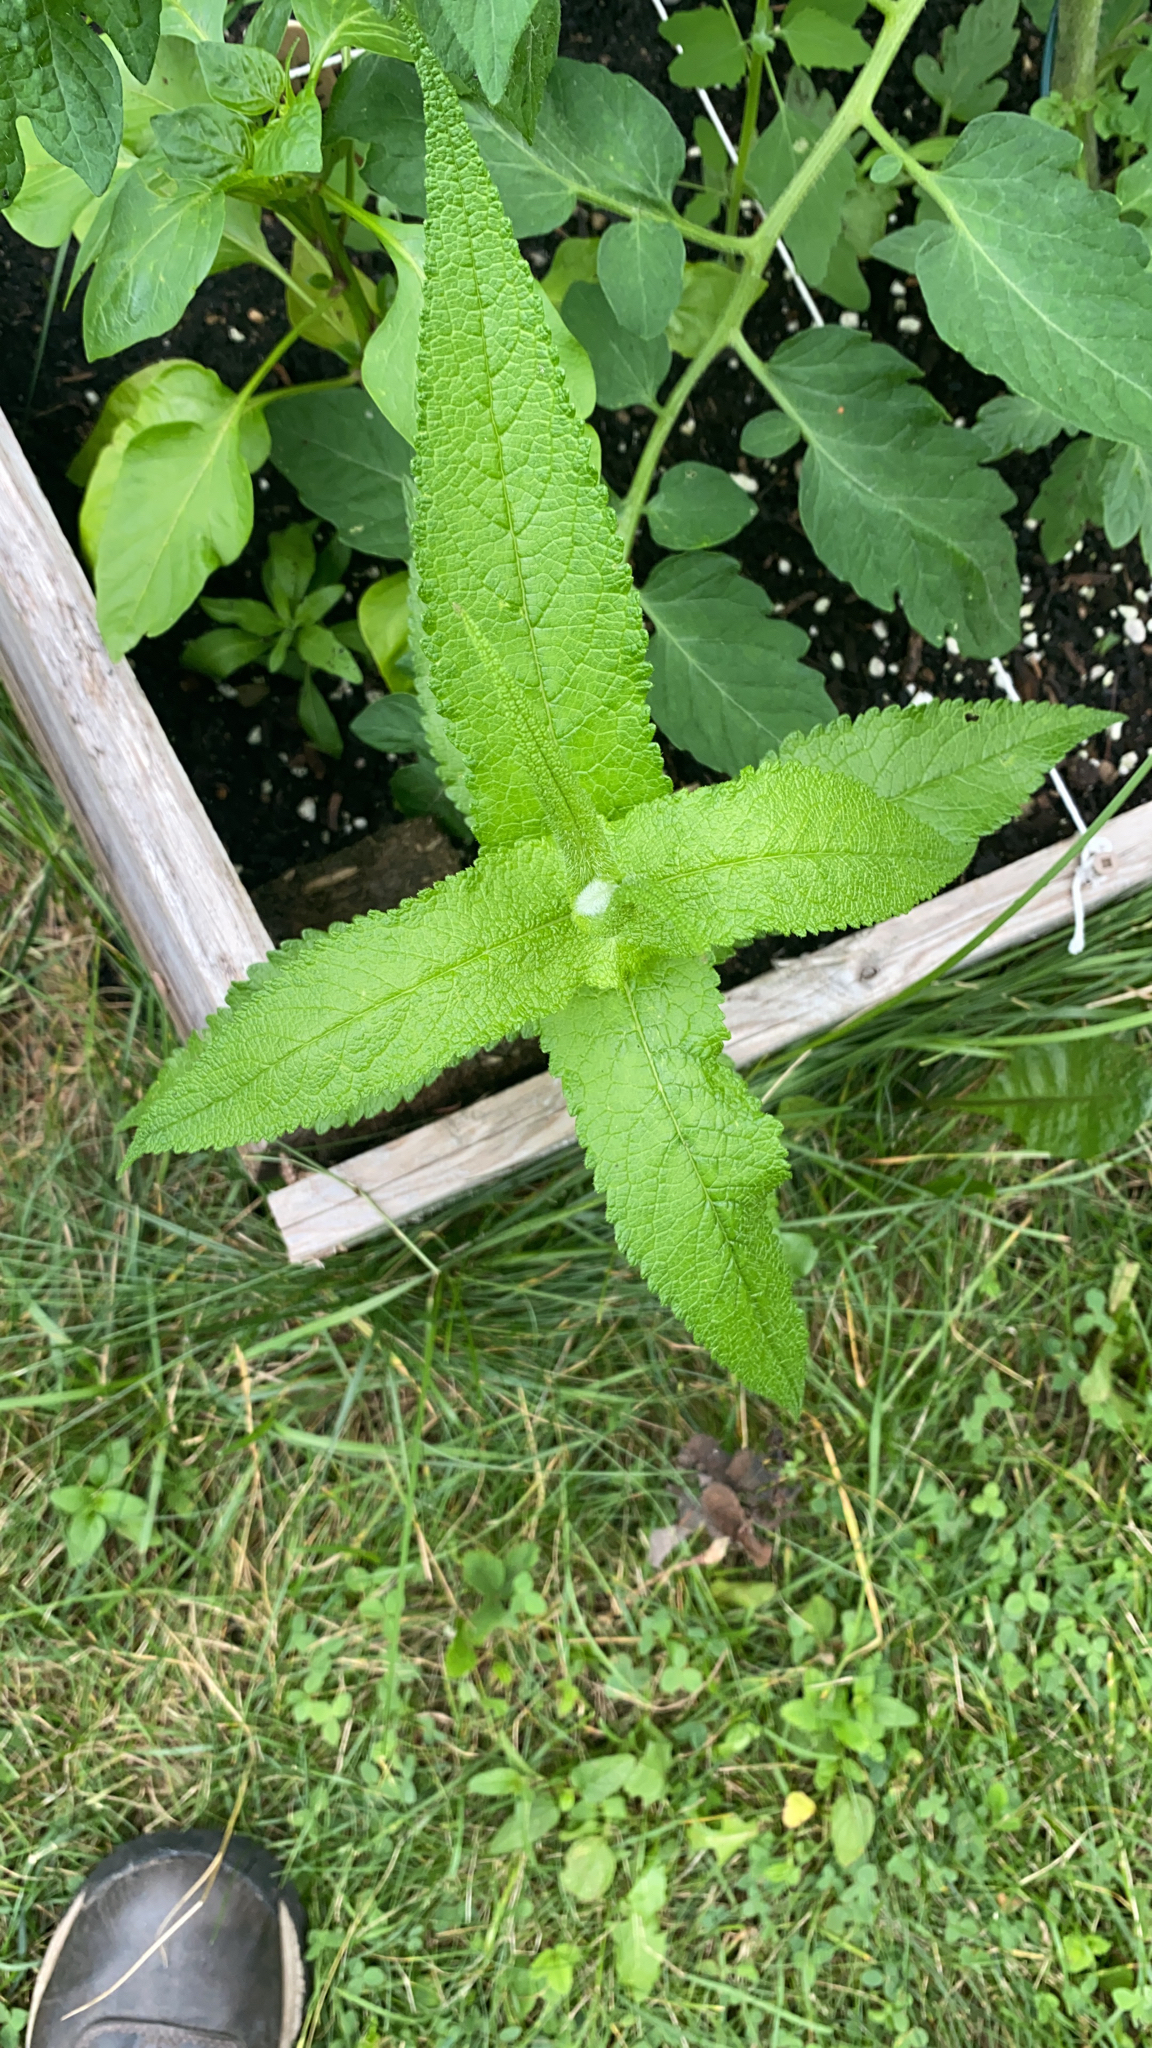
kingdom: Plantae
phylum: Tracheophyta
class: Magnoliopsida
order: Asterales
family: Asteraceae
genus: Eupatorium
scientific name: Eupatorium perfoliatum
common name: Boneset
